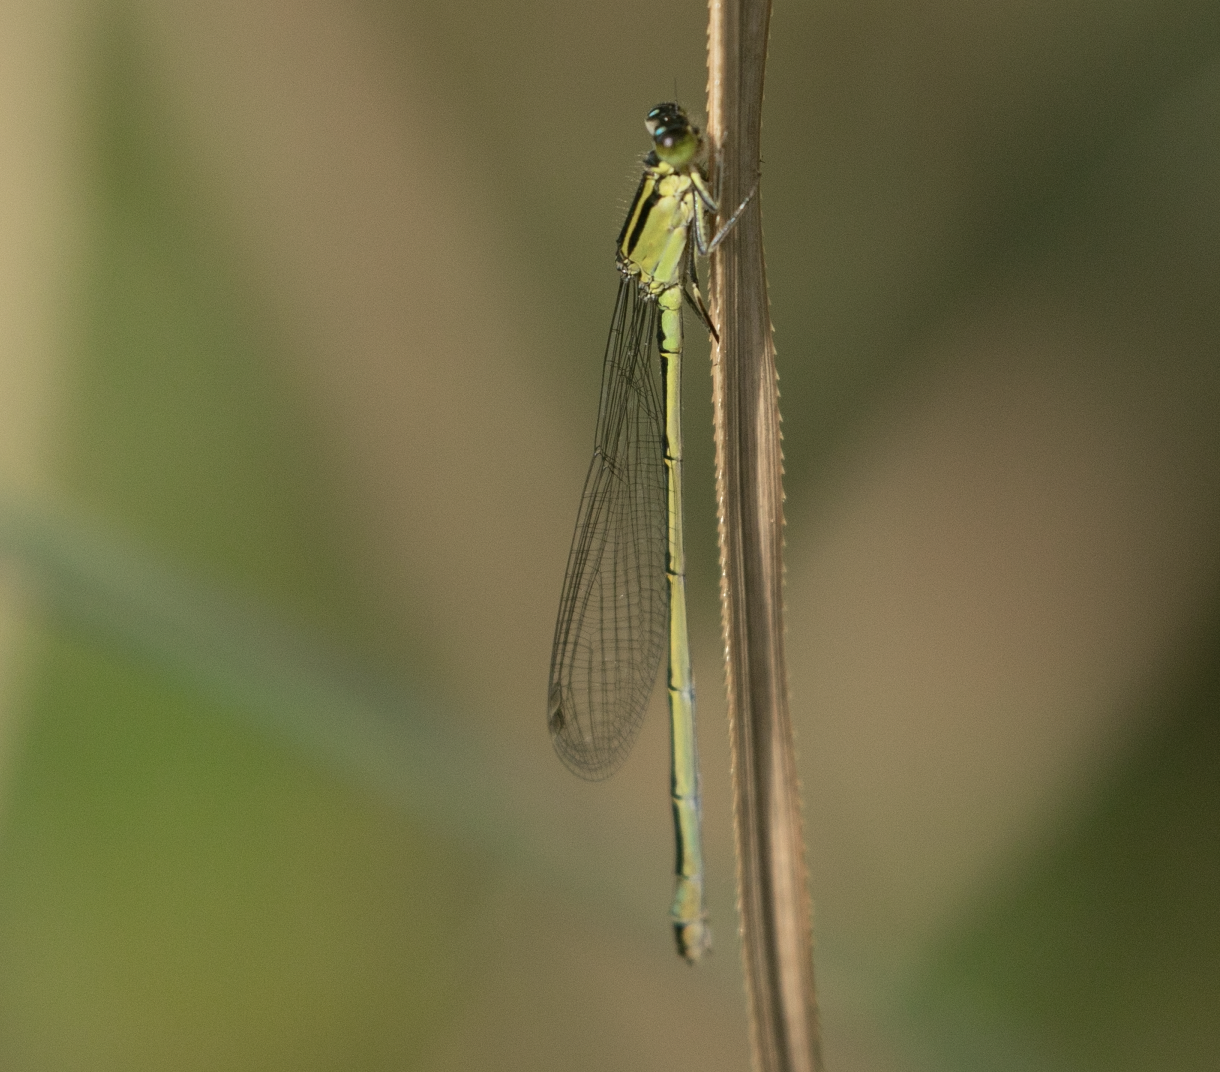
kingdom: Animalia
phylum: Arthropoda
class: Insecta
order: Odonata
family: Coenagrionidae
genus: Ischnura
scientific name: Ischnura elegans
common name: Blue-tailed damselfly
